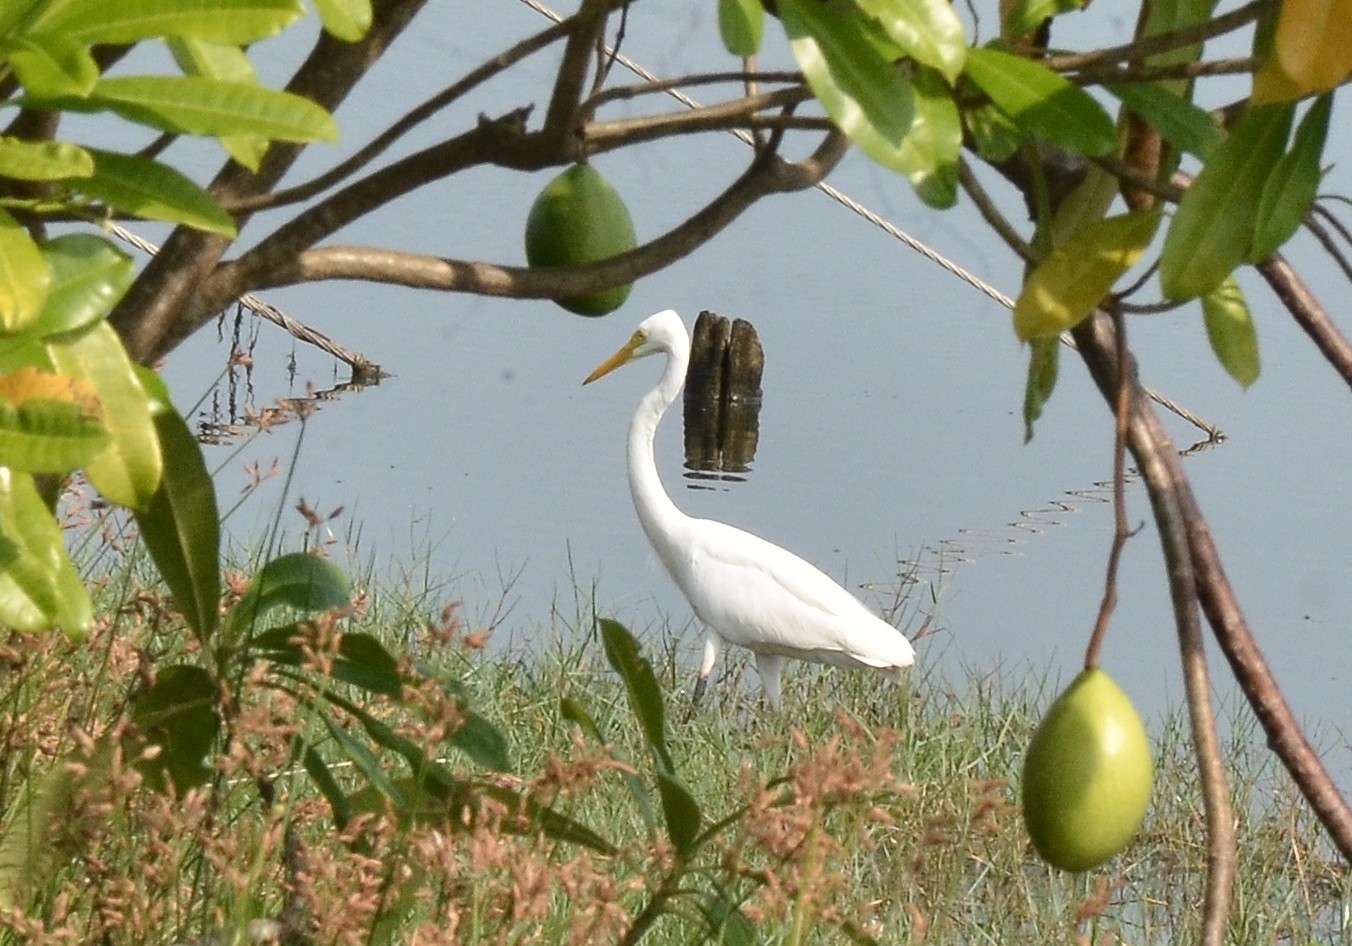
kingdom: Animalia
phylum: Chordata
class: Aves
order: Pelecaniformes
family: Ardeidae
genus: Egretta
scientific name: Egretta intermedia
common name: Intermediate egret
